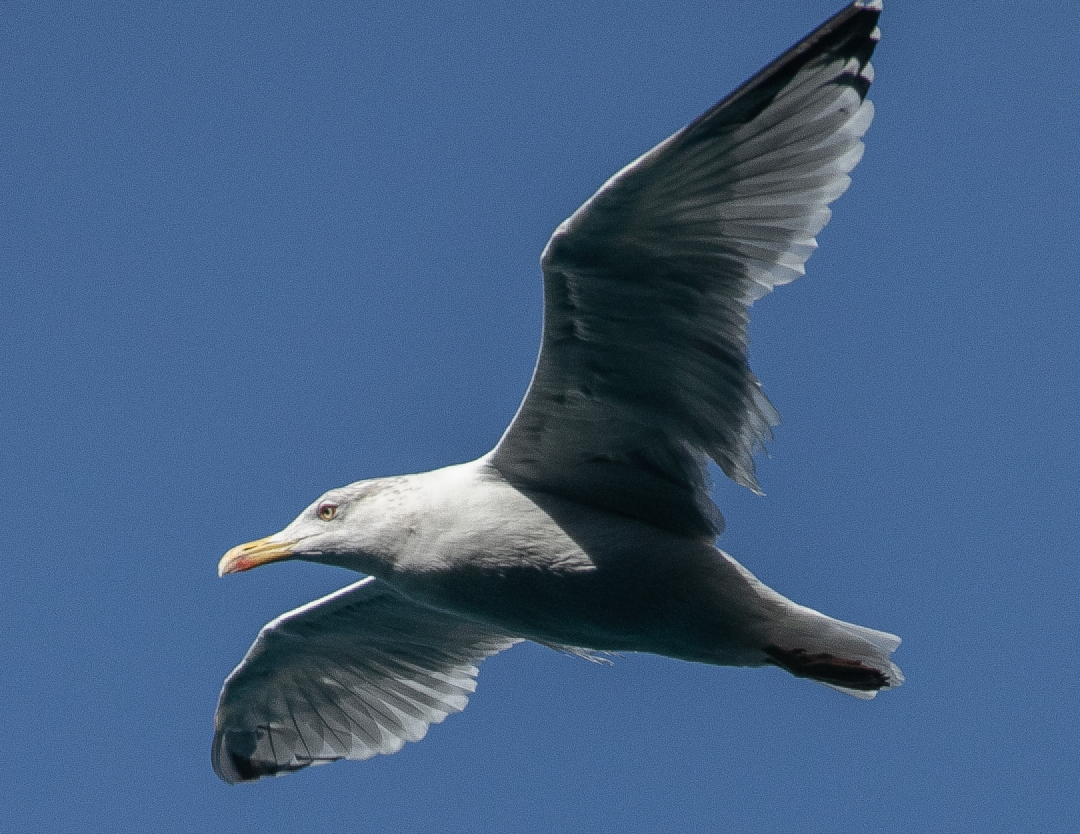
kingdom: Animalia
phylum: Chordata
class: Aves
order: Charadriiformes
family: Laridae
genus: Larus
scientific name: Larus michahellis
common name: Yellow-legged gull
